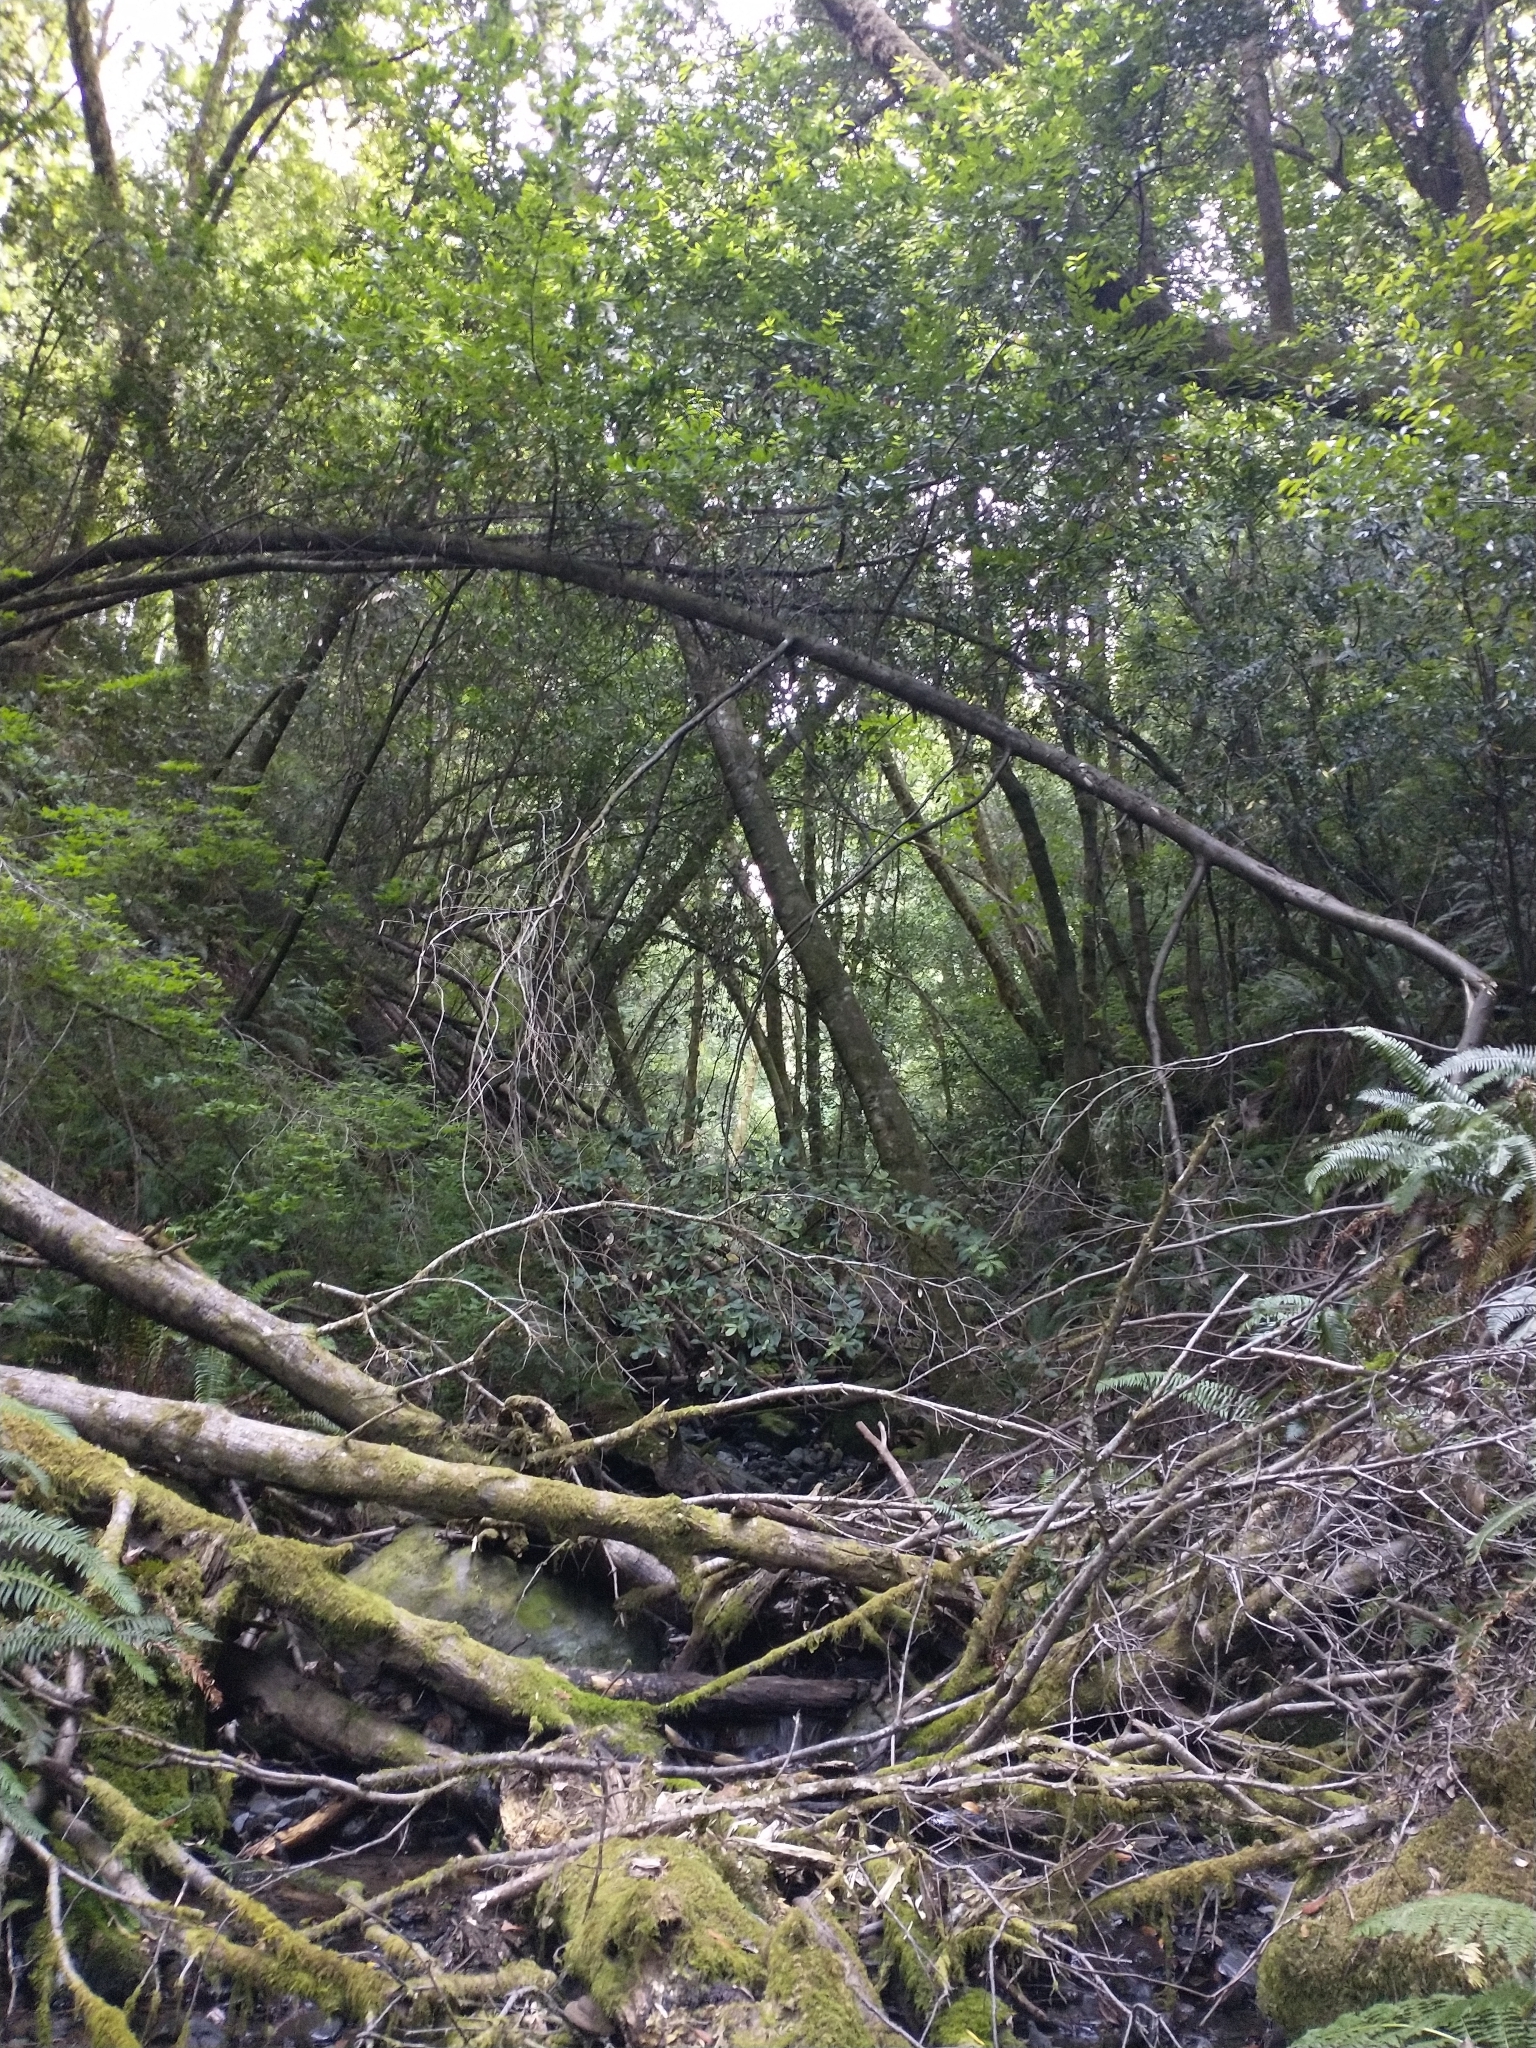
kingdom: Plantae
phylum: Tracheophyta
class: Magnoliopsida
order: Laurales
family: Lauraceae
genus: Umbellularia
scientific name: Umbellularia californica
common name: California bay
